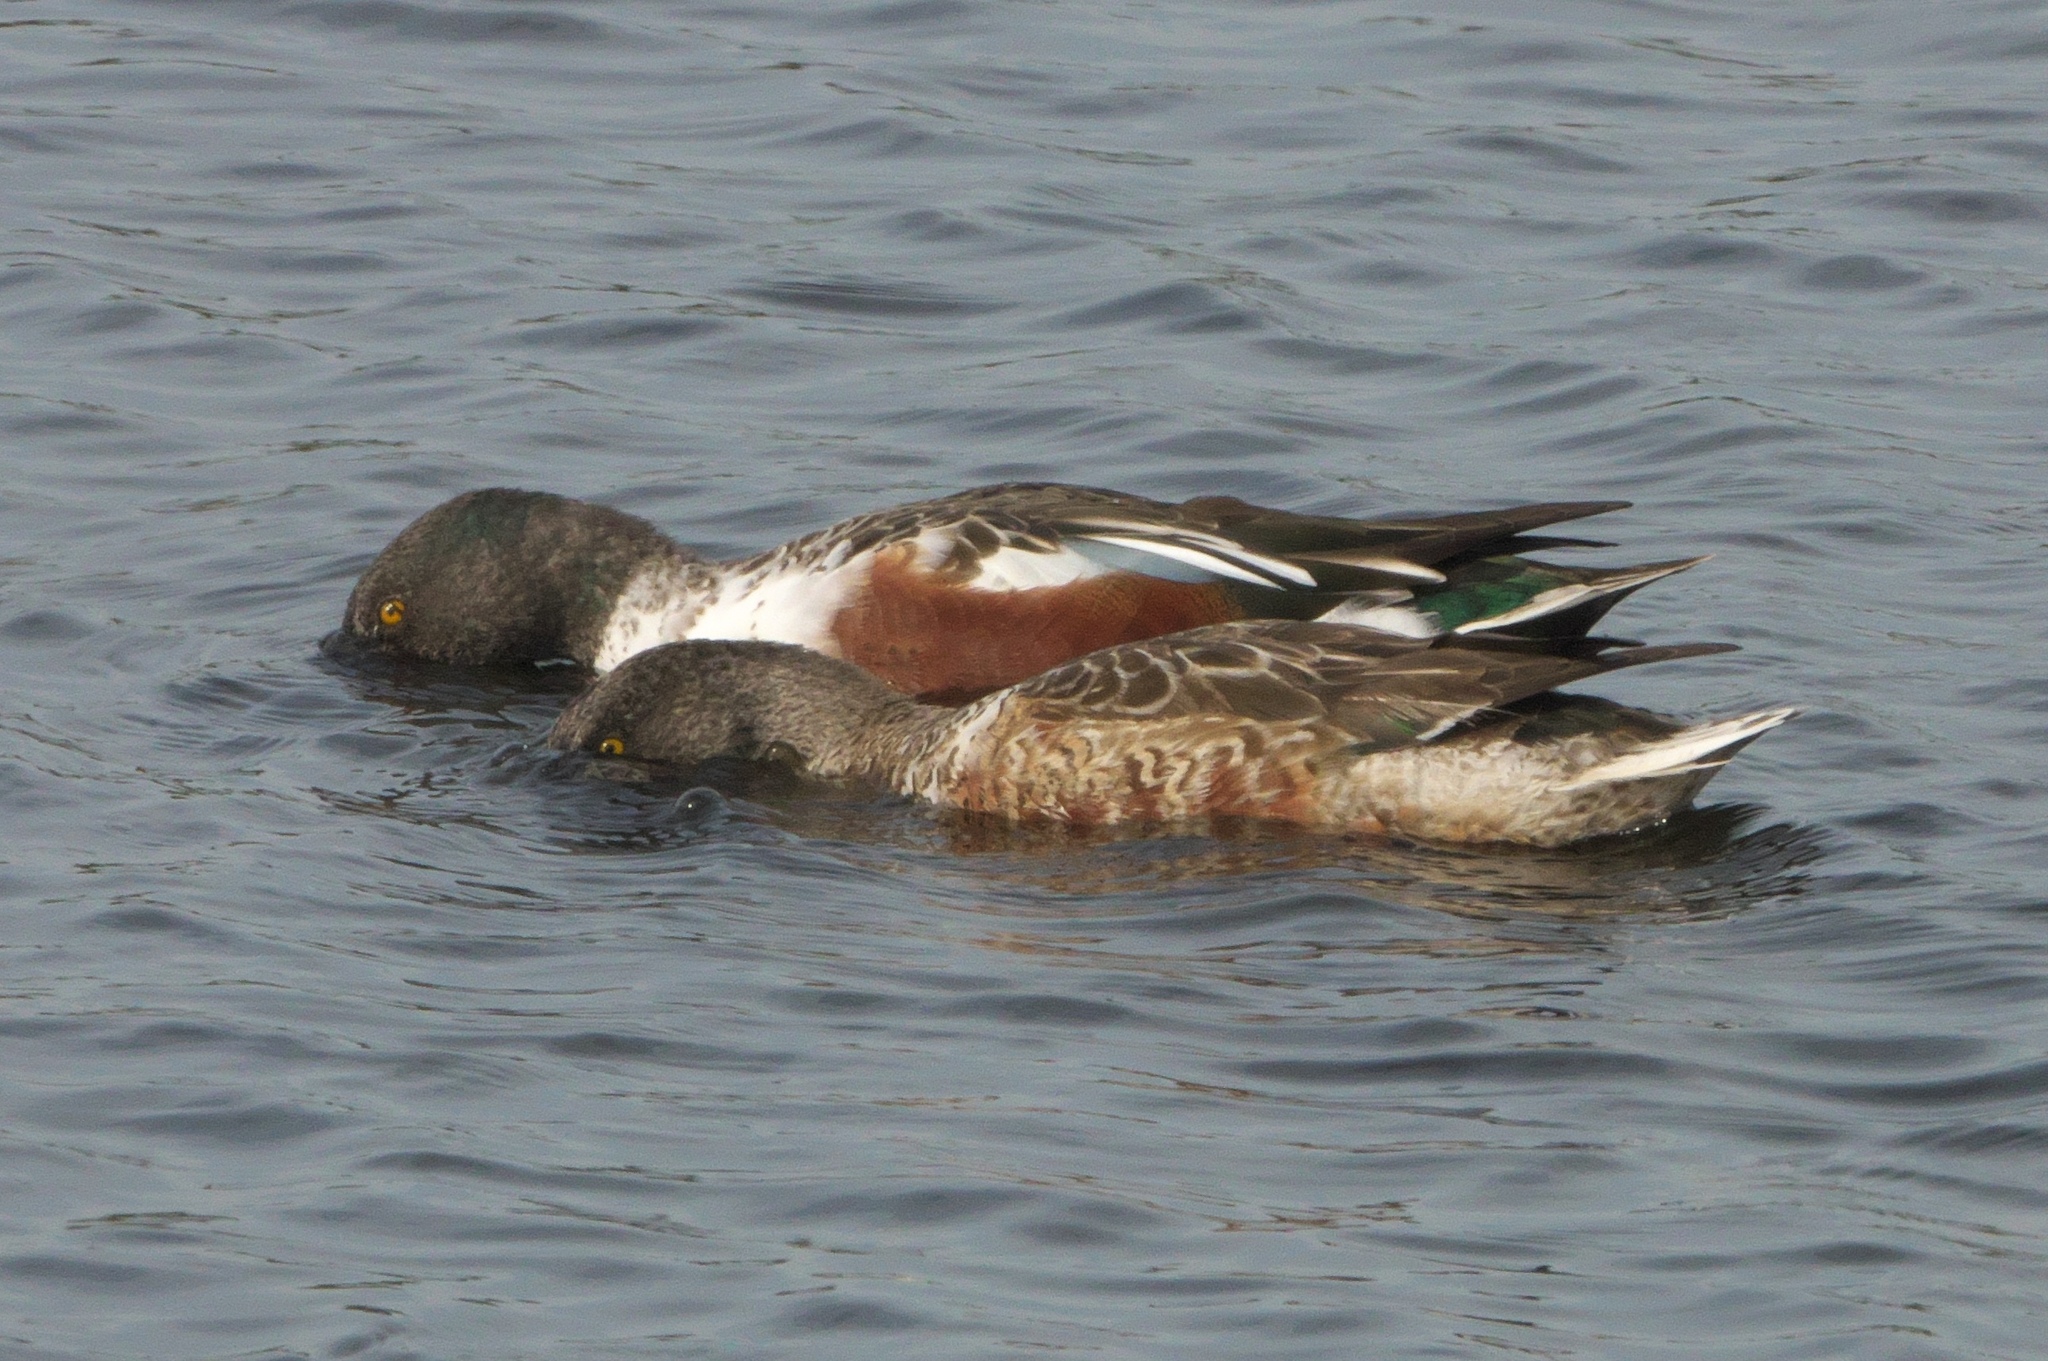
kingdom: Animalia
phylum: Chordata
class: Aves
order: Anseriformes
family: Anatidae
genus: Spatula
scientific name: Spatula clypeata
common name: Northern shoveler
